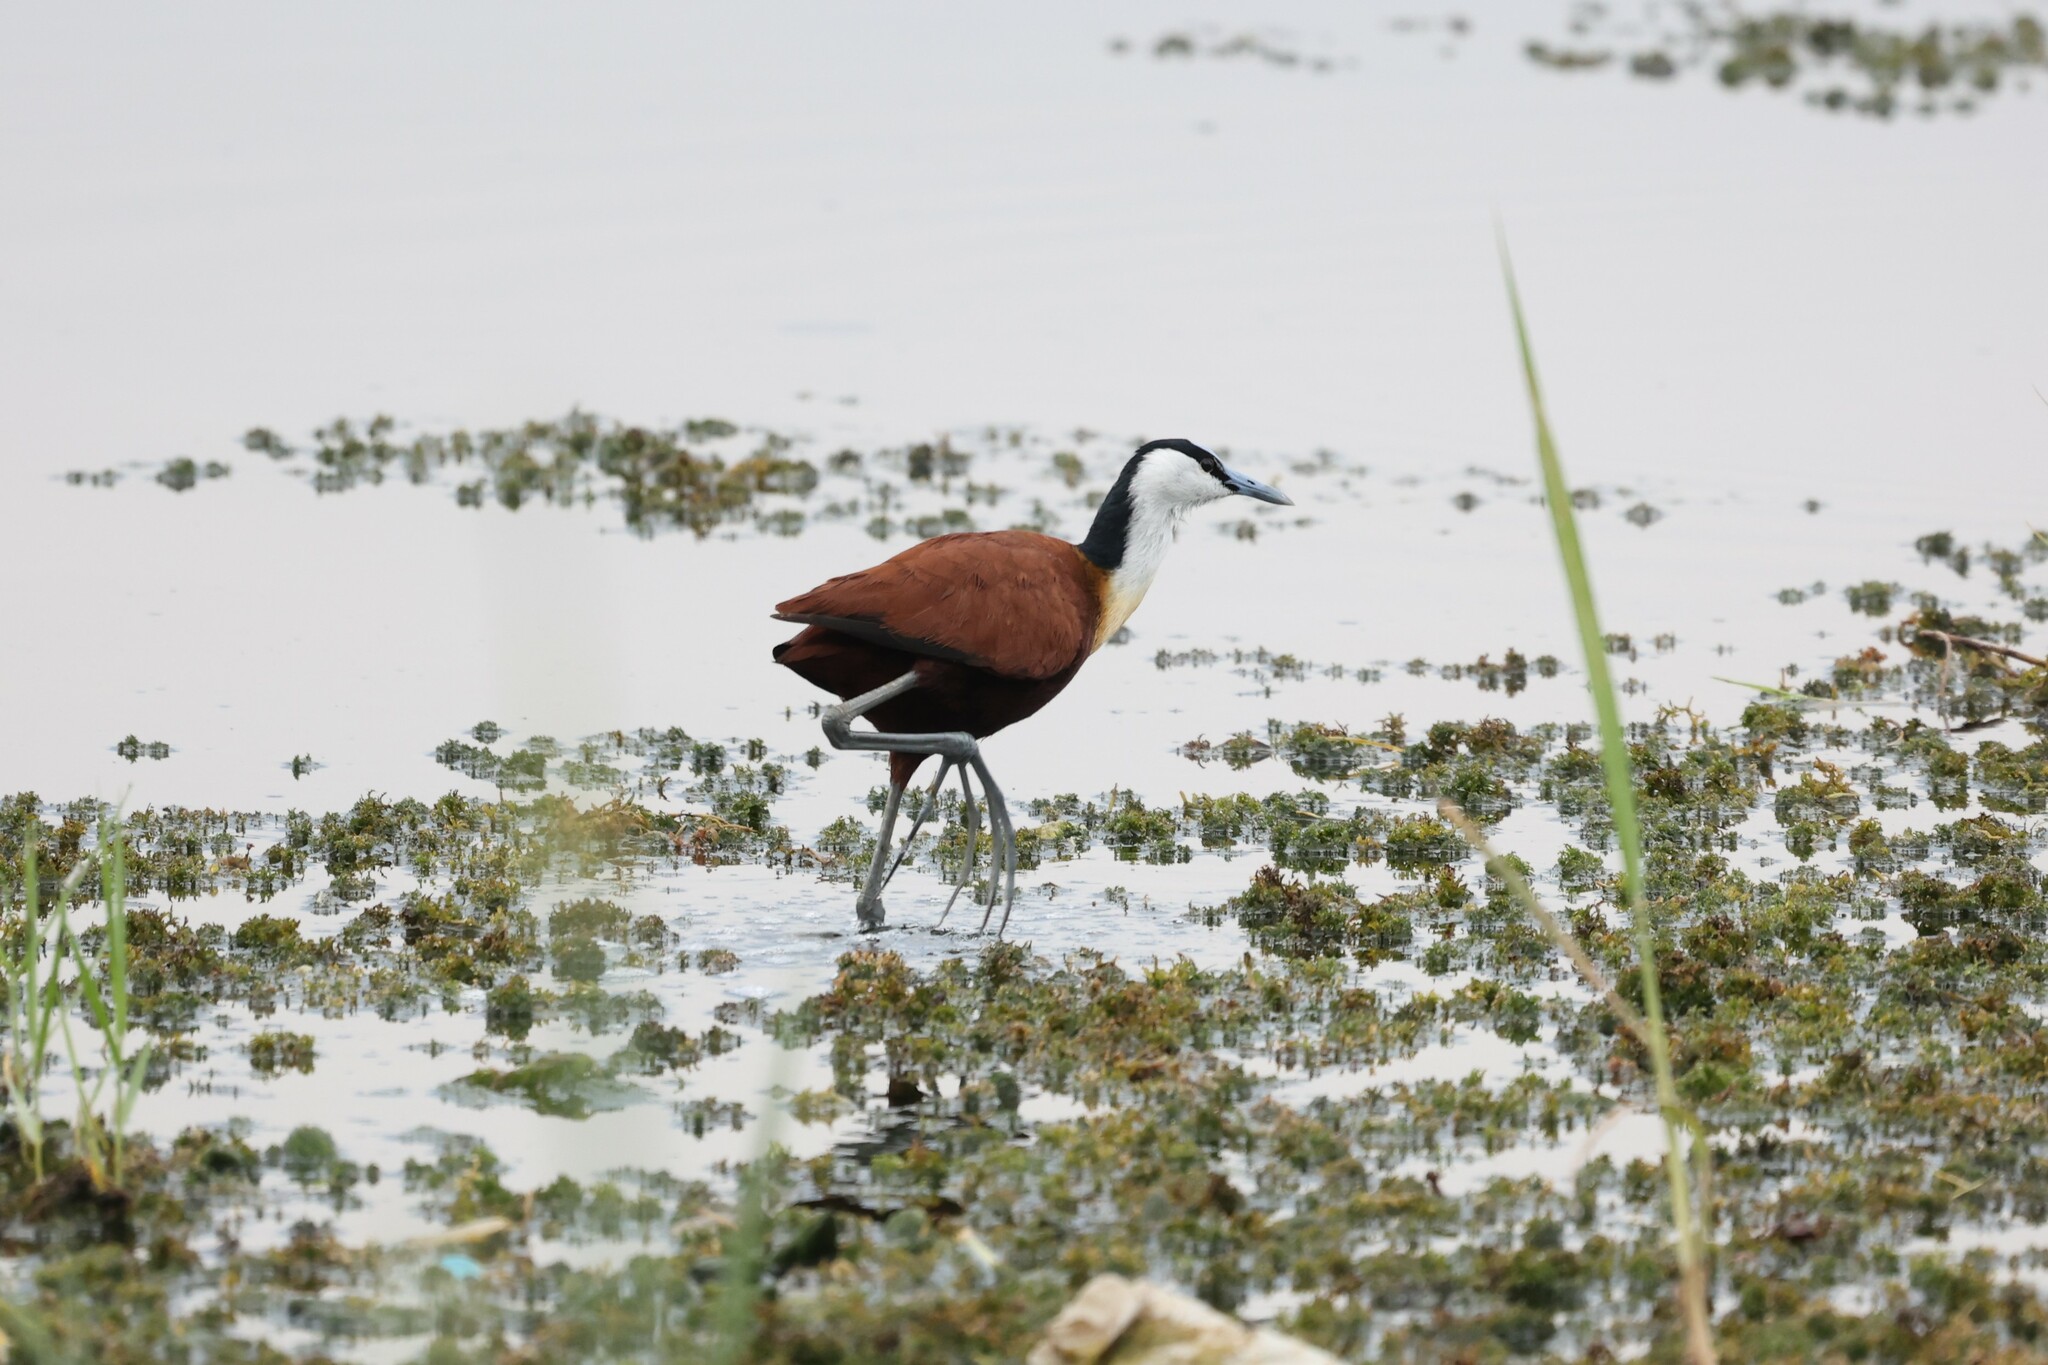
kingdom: Animalia
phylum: Chordata
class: Aves
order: Charadriiformes
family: Jacanidae
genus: Actophilornis
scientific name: Actophilornis africanus
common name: African jacana
